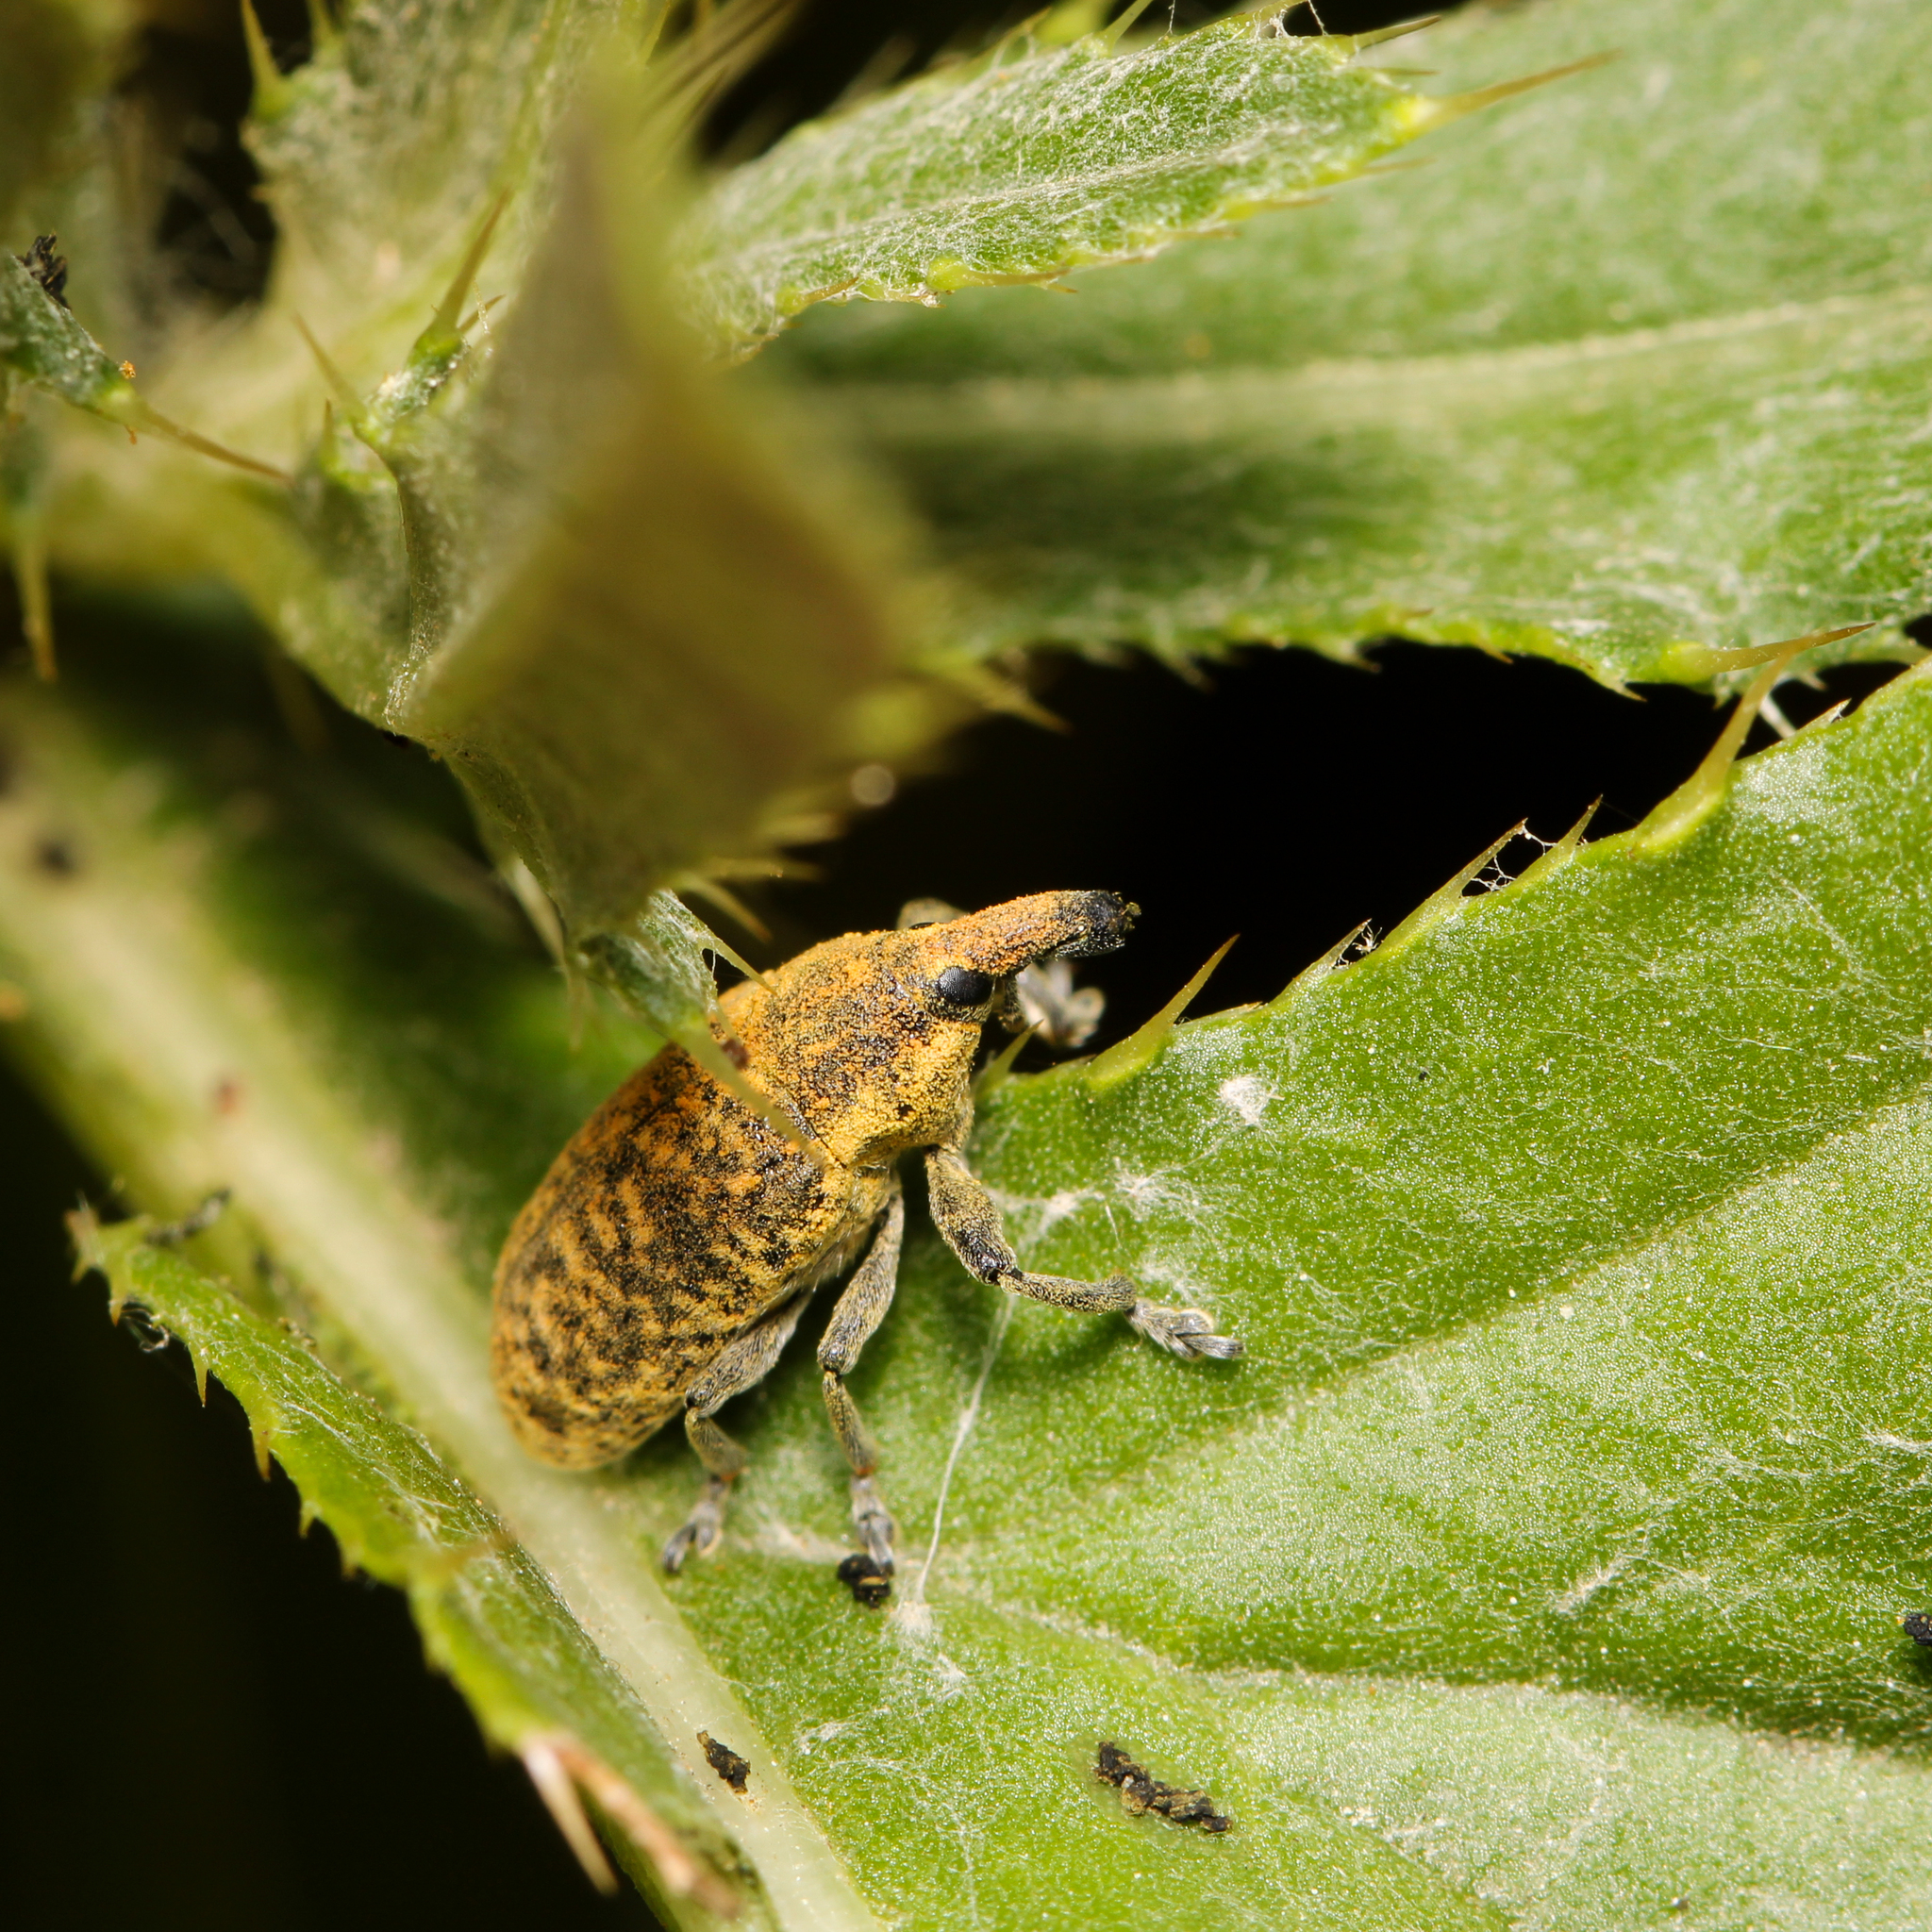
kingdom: Animalia
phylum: Arthropoda
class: Insecta
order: Coleoptera
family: Curculionidae
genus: Larinus
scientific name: Larinus carlinae
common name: Weevil
